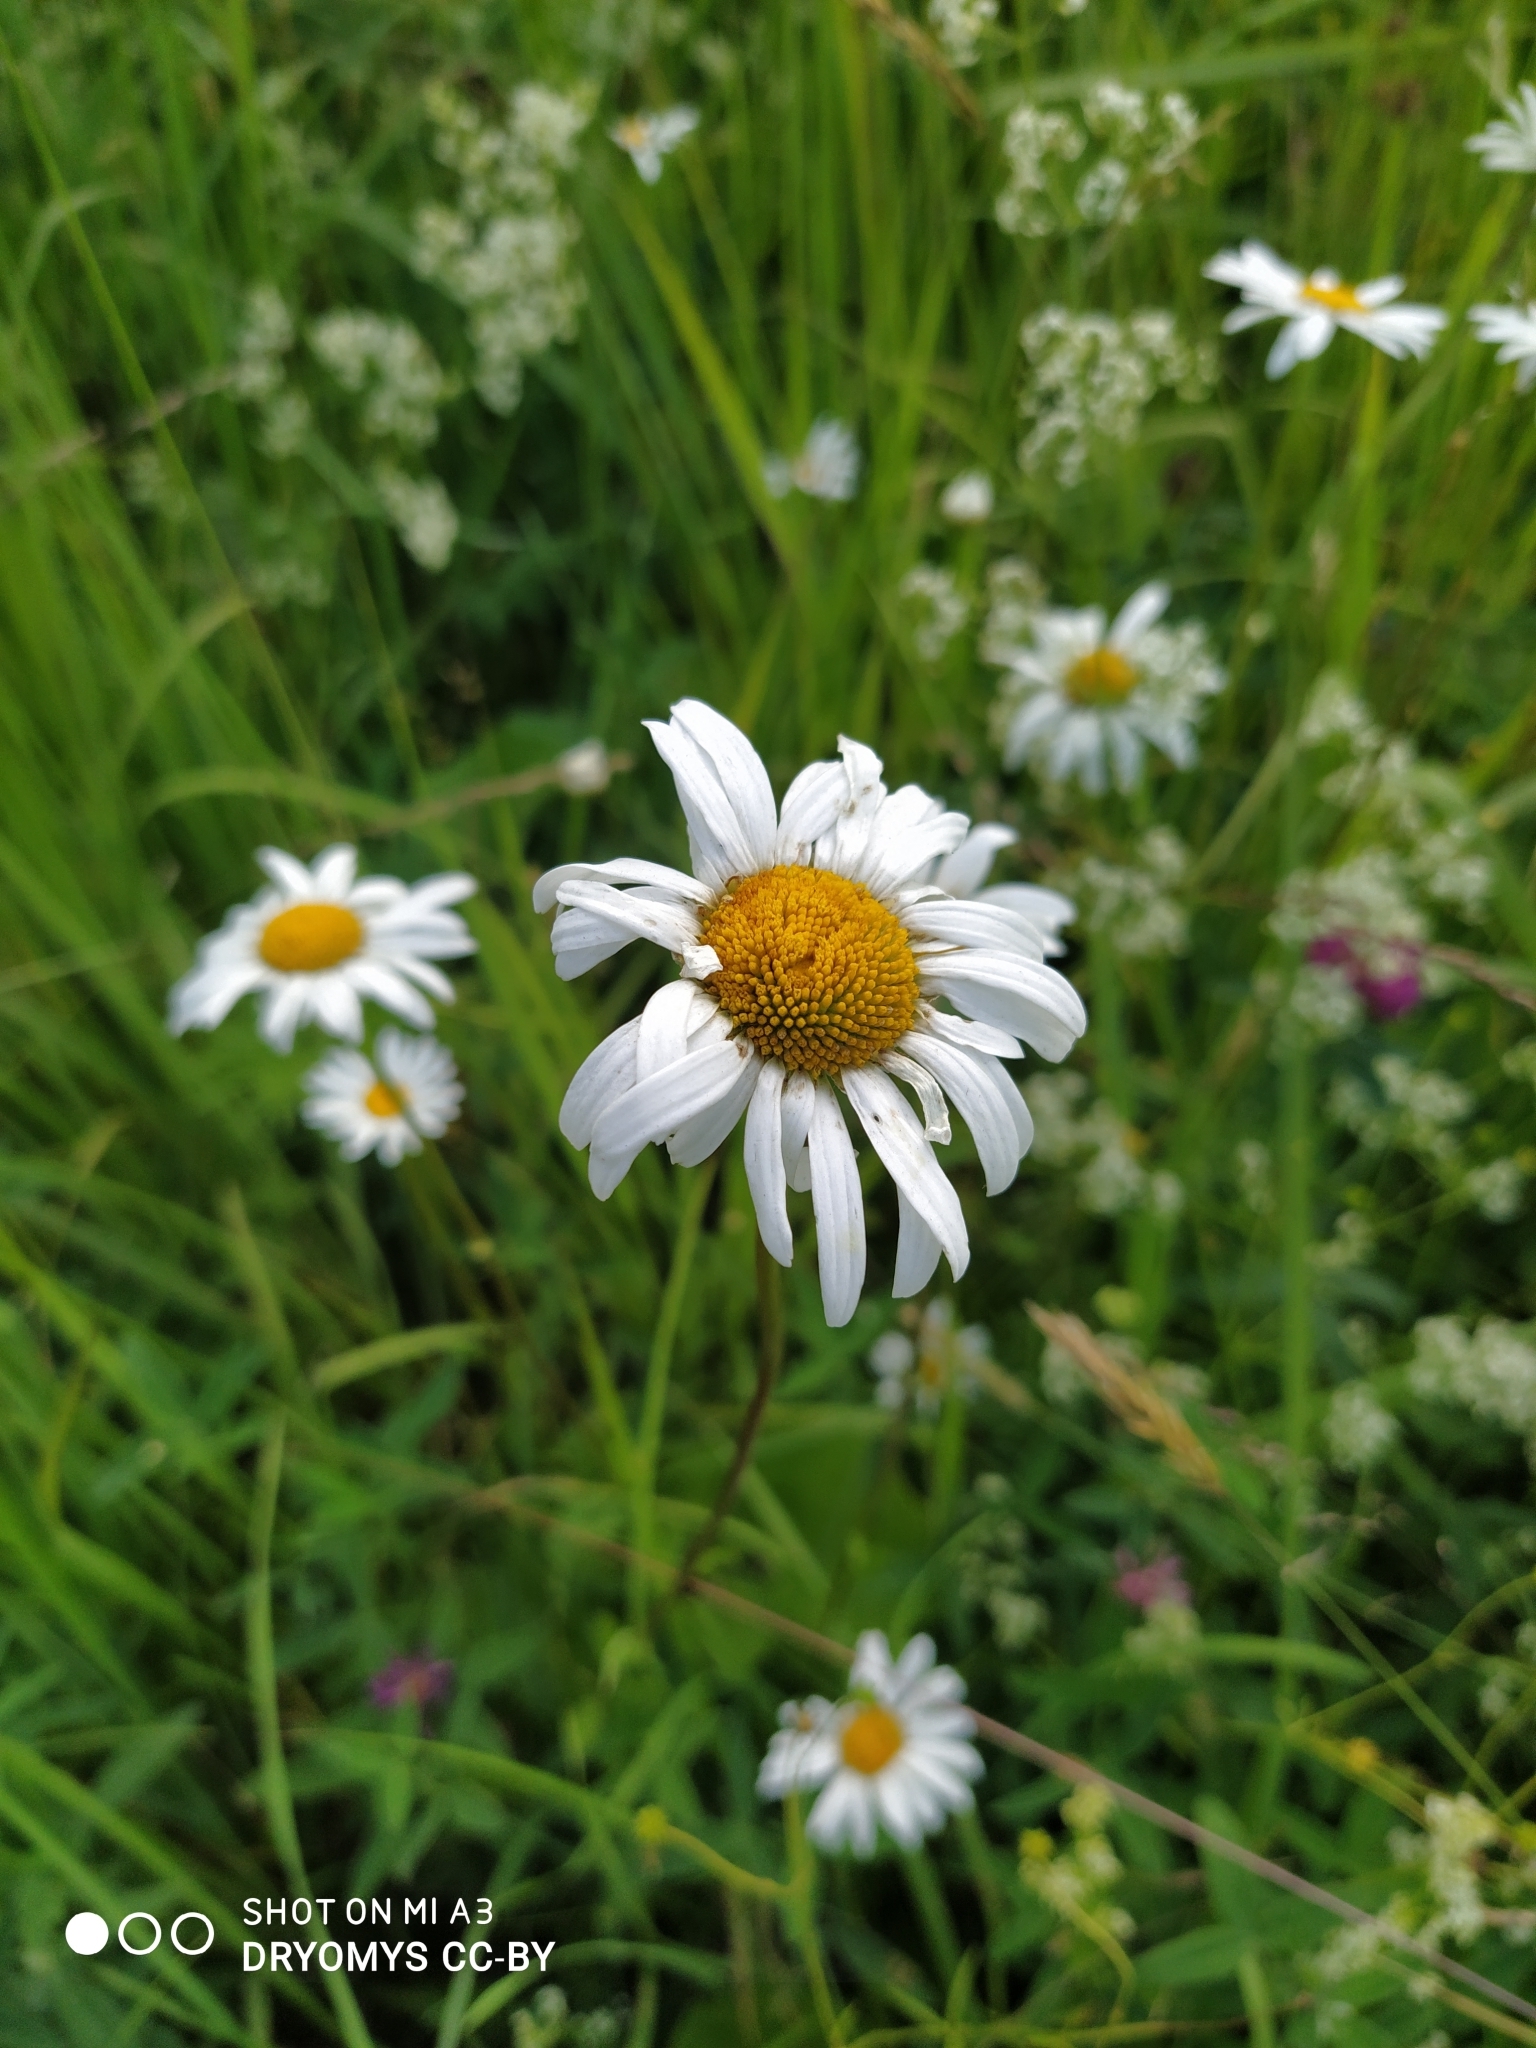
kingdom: Plantae
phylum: Tracheophyta
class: Magnoliopsida
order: Asterales
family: Asteraceae
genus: Leucanthemum
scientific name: Leucanthemum vulgare
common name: Oxeye daisy
